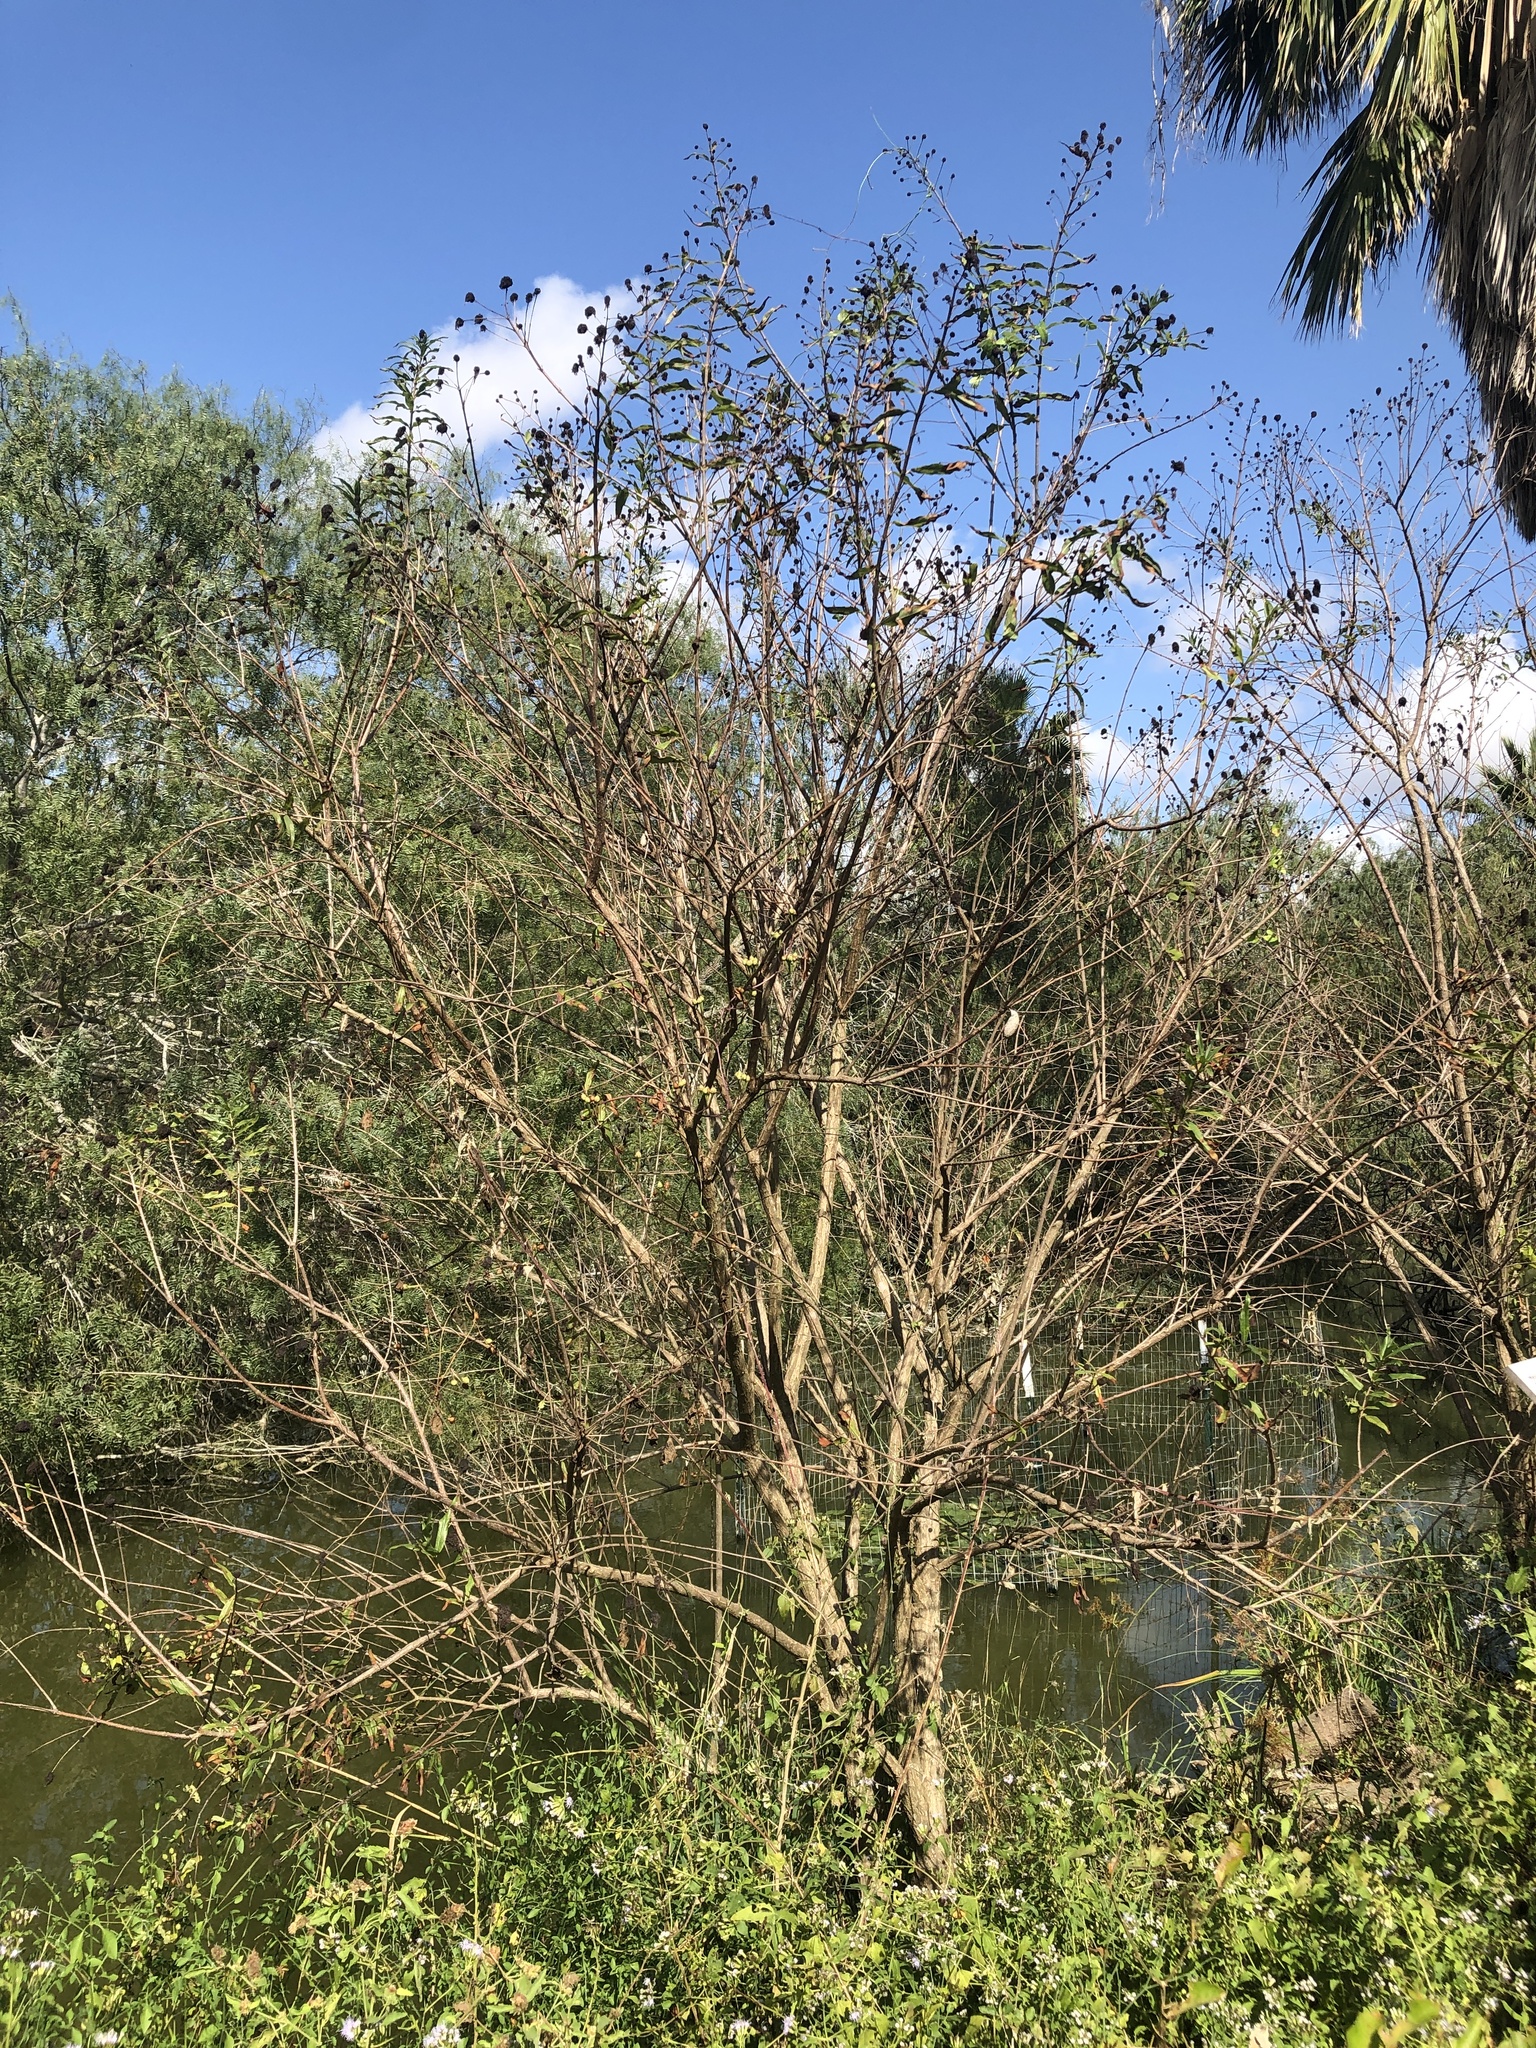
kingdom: Plantae
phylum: Tracheophyta
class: Magnoliopsida
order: Gentianales
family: Rubiaceae
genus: Cephalanthus
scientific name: Cephalanthus salicifolius
